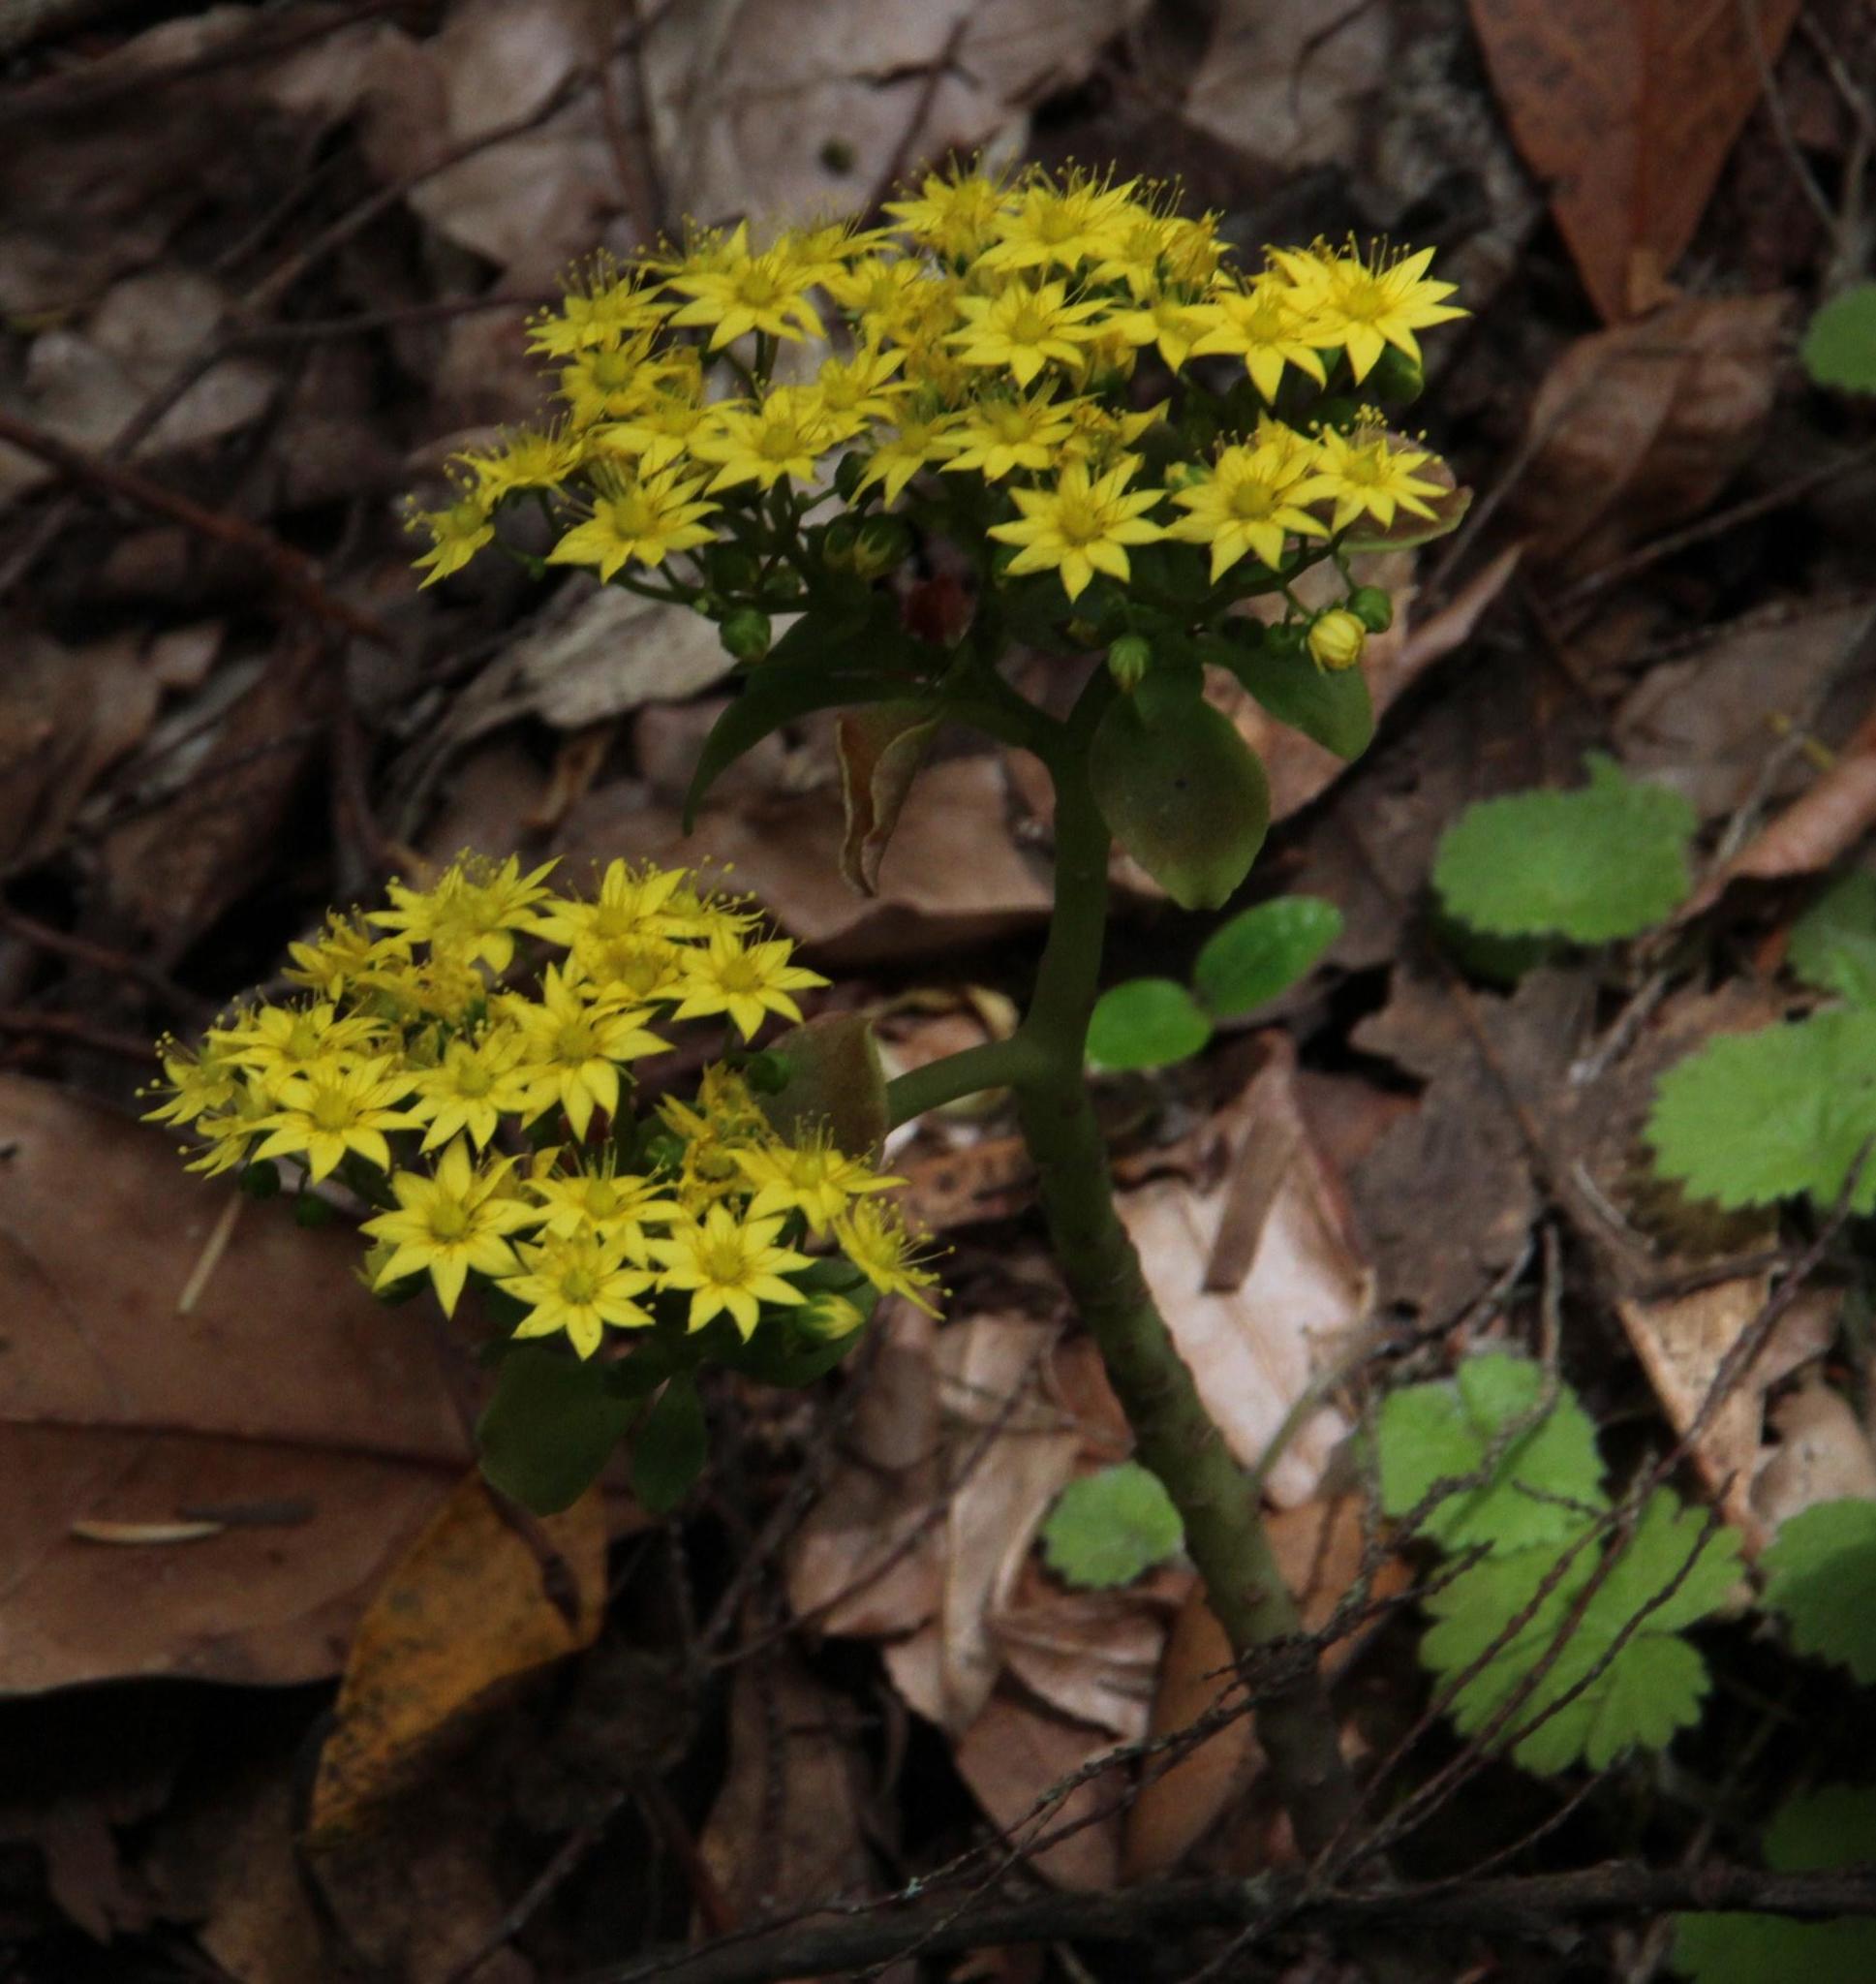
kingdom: Plantae
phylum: Tracheophyta
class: Magnoliopsida
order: Saxifragales
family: Crassulaceae
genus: Aichryson
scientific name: Aichryson divaricatum
